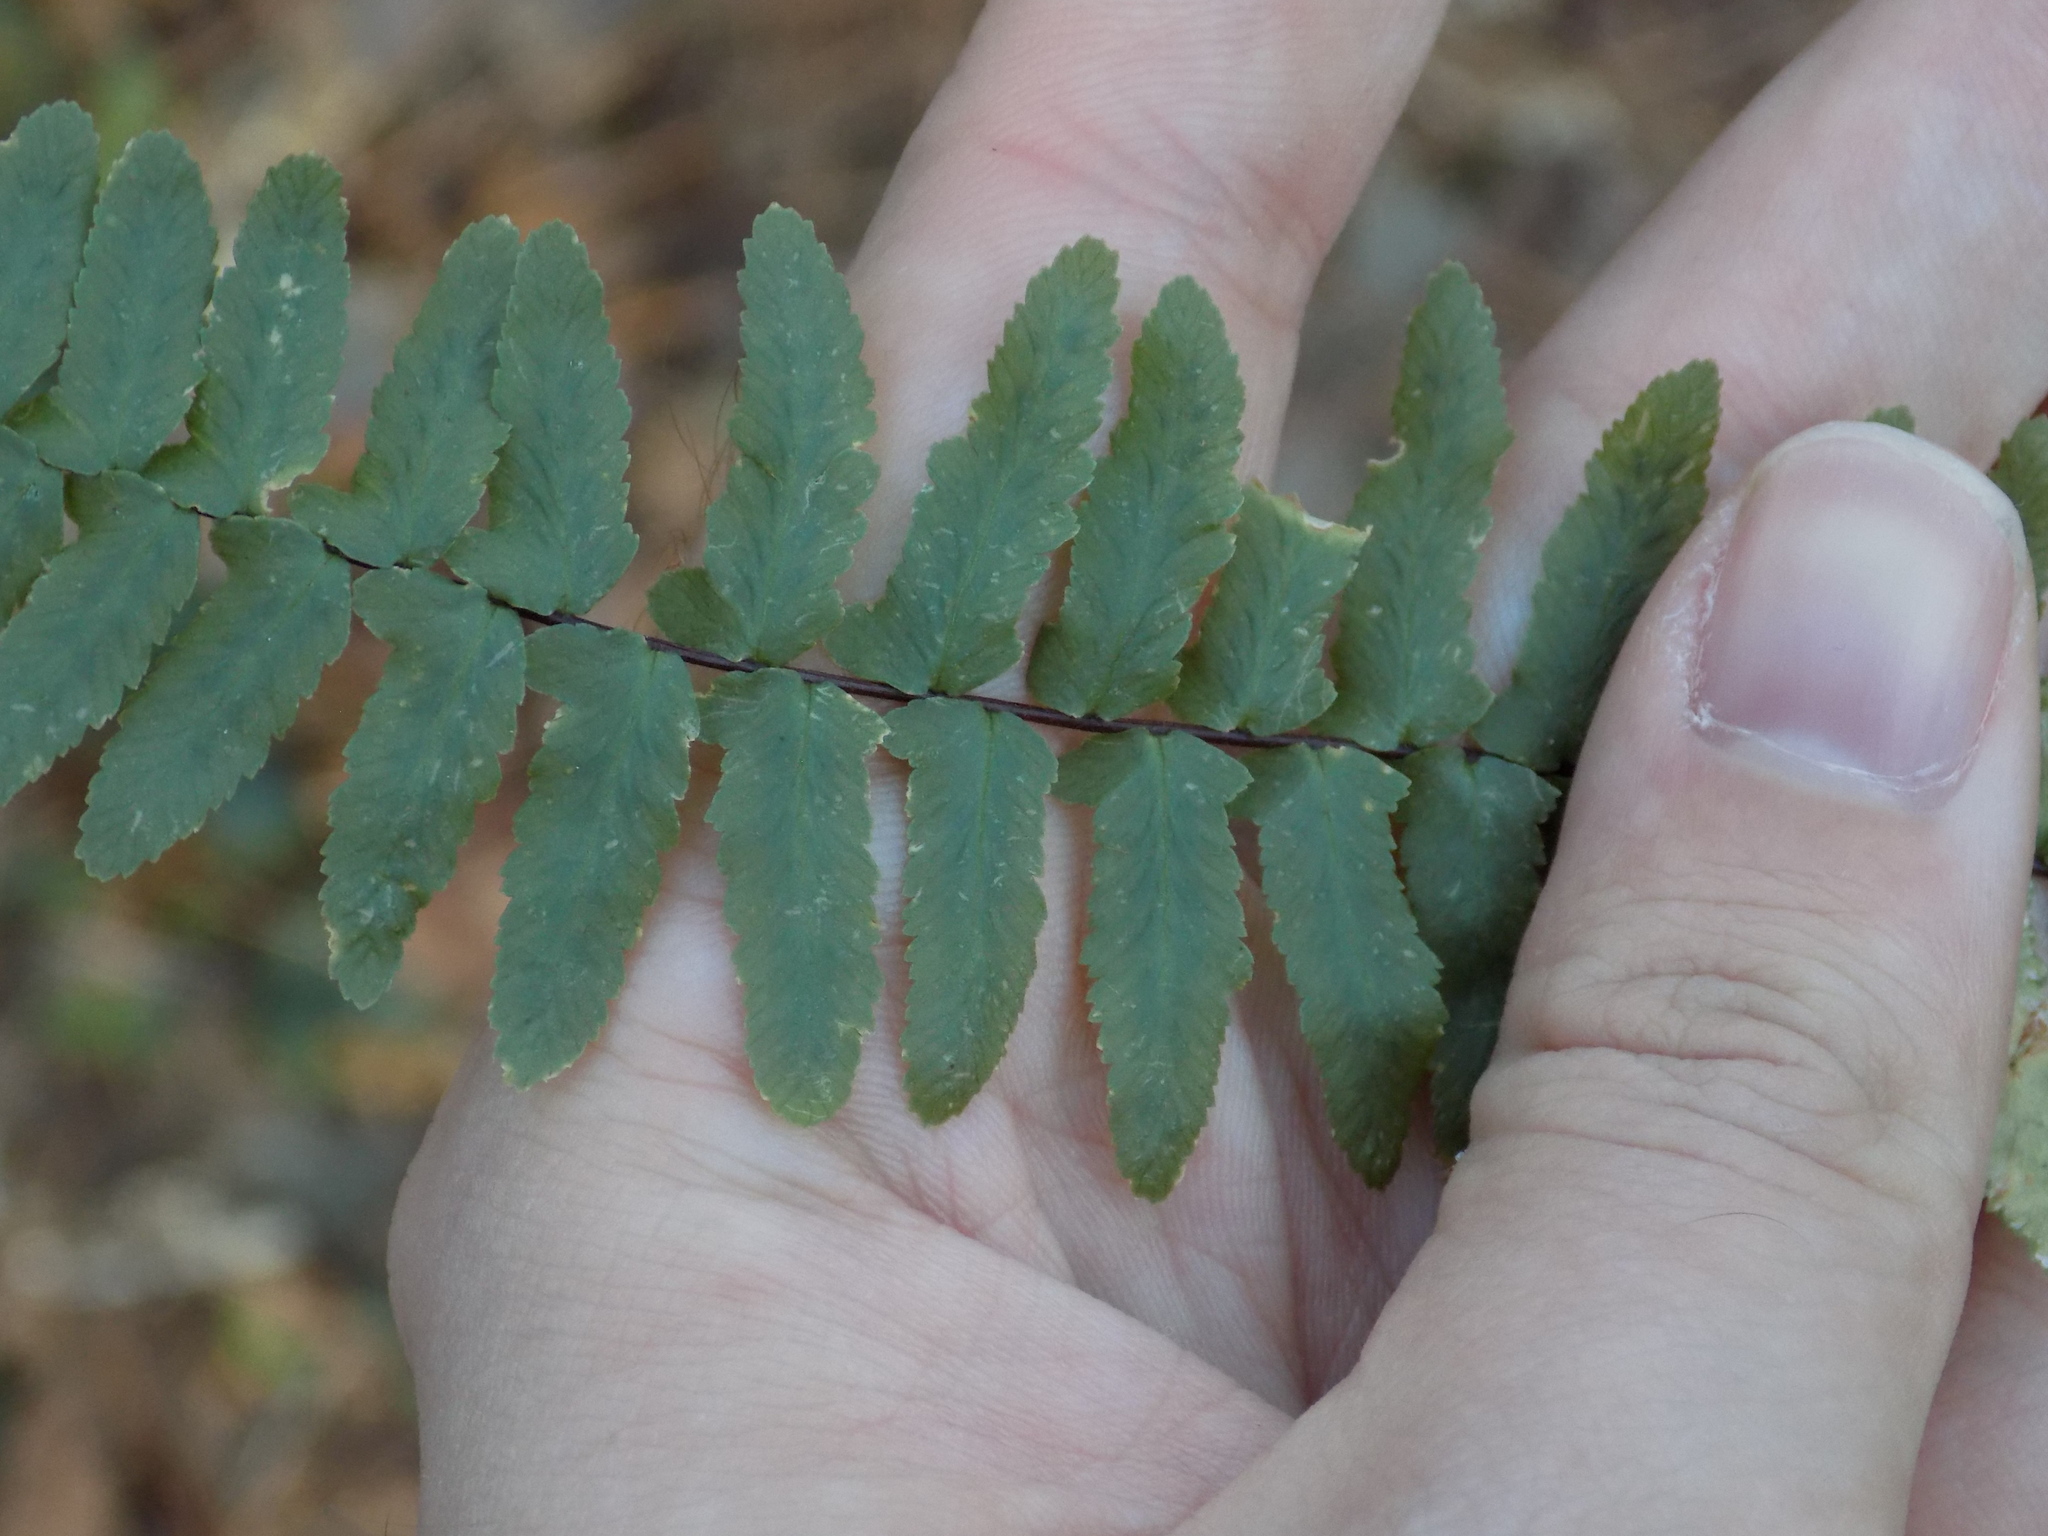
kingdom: Plantae
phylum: Tracheophyta
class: Polypodiopsida
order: Polypodiales
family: Aspleniaceae
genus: Asplenium
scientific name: Asplenium platyneuron
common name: Ebony spleenwort
